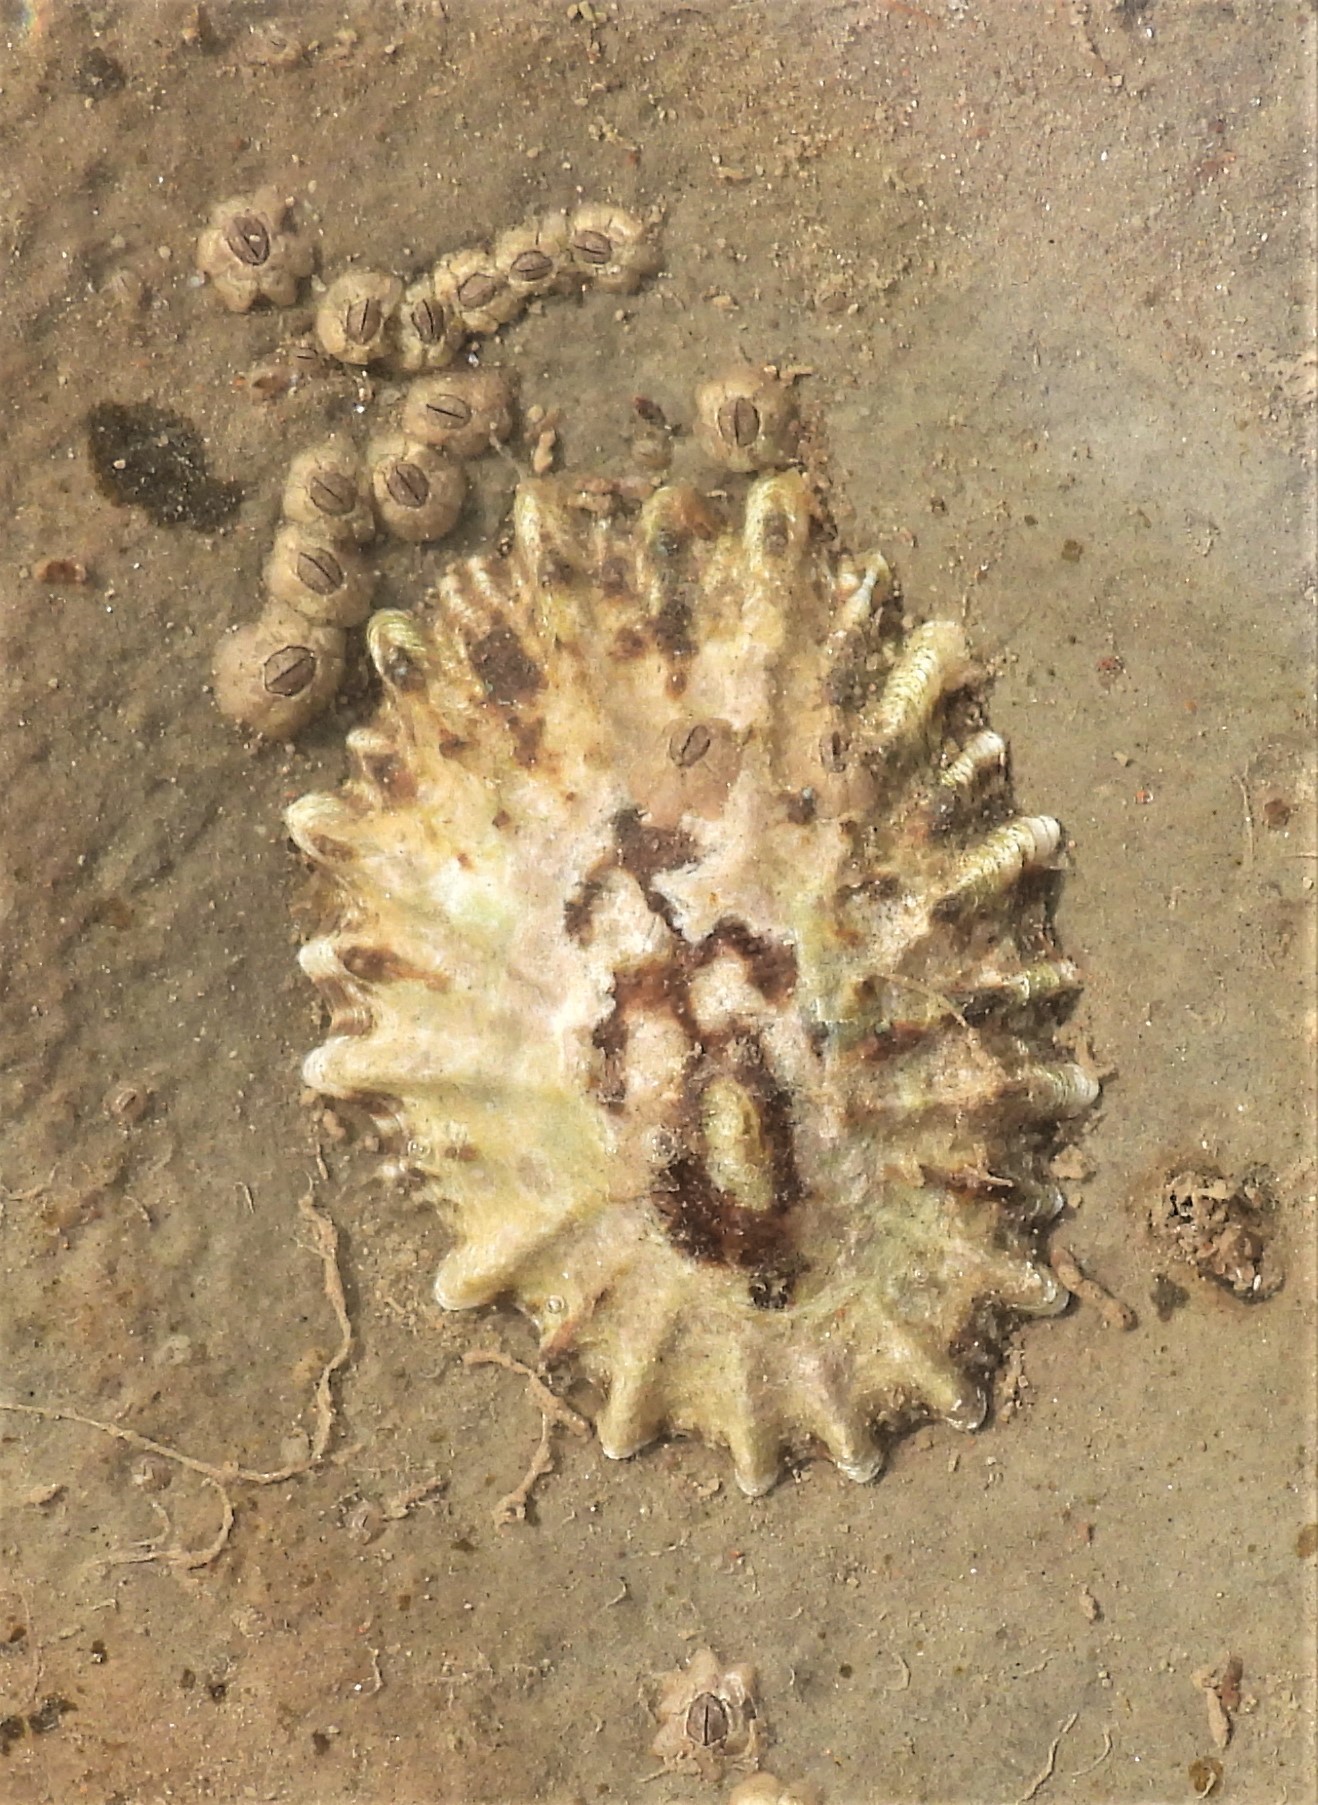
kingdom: Animalia
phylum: Mollusca
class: Gastropoda
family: Lottiidae
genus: Lottia
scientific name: Lottia scabra
